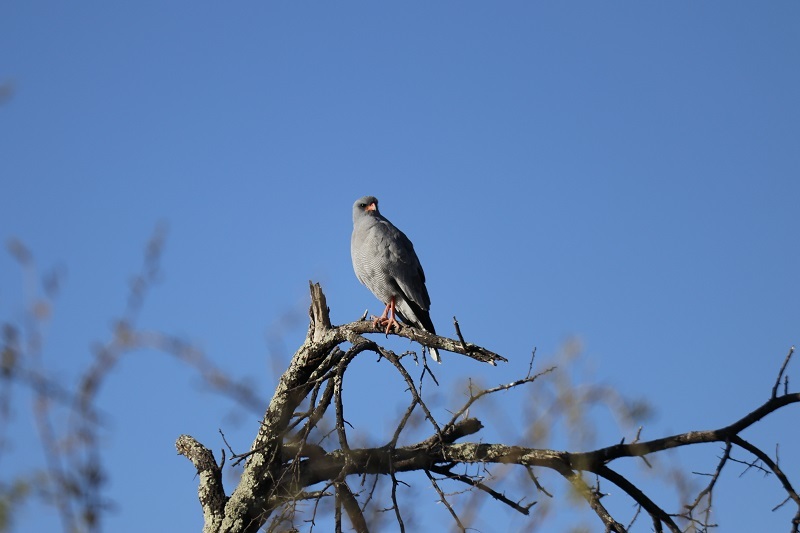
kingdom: Animalia
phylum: Chordata
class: Aves
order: Accipitriformes
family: Accipitridae
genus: Melierax
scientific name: Melierax canorus
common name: Pale chanting-goshawk
